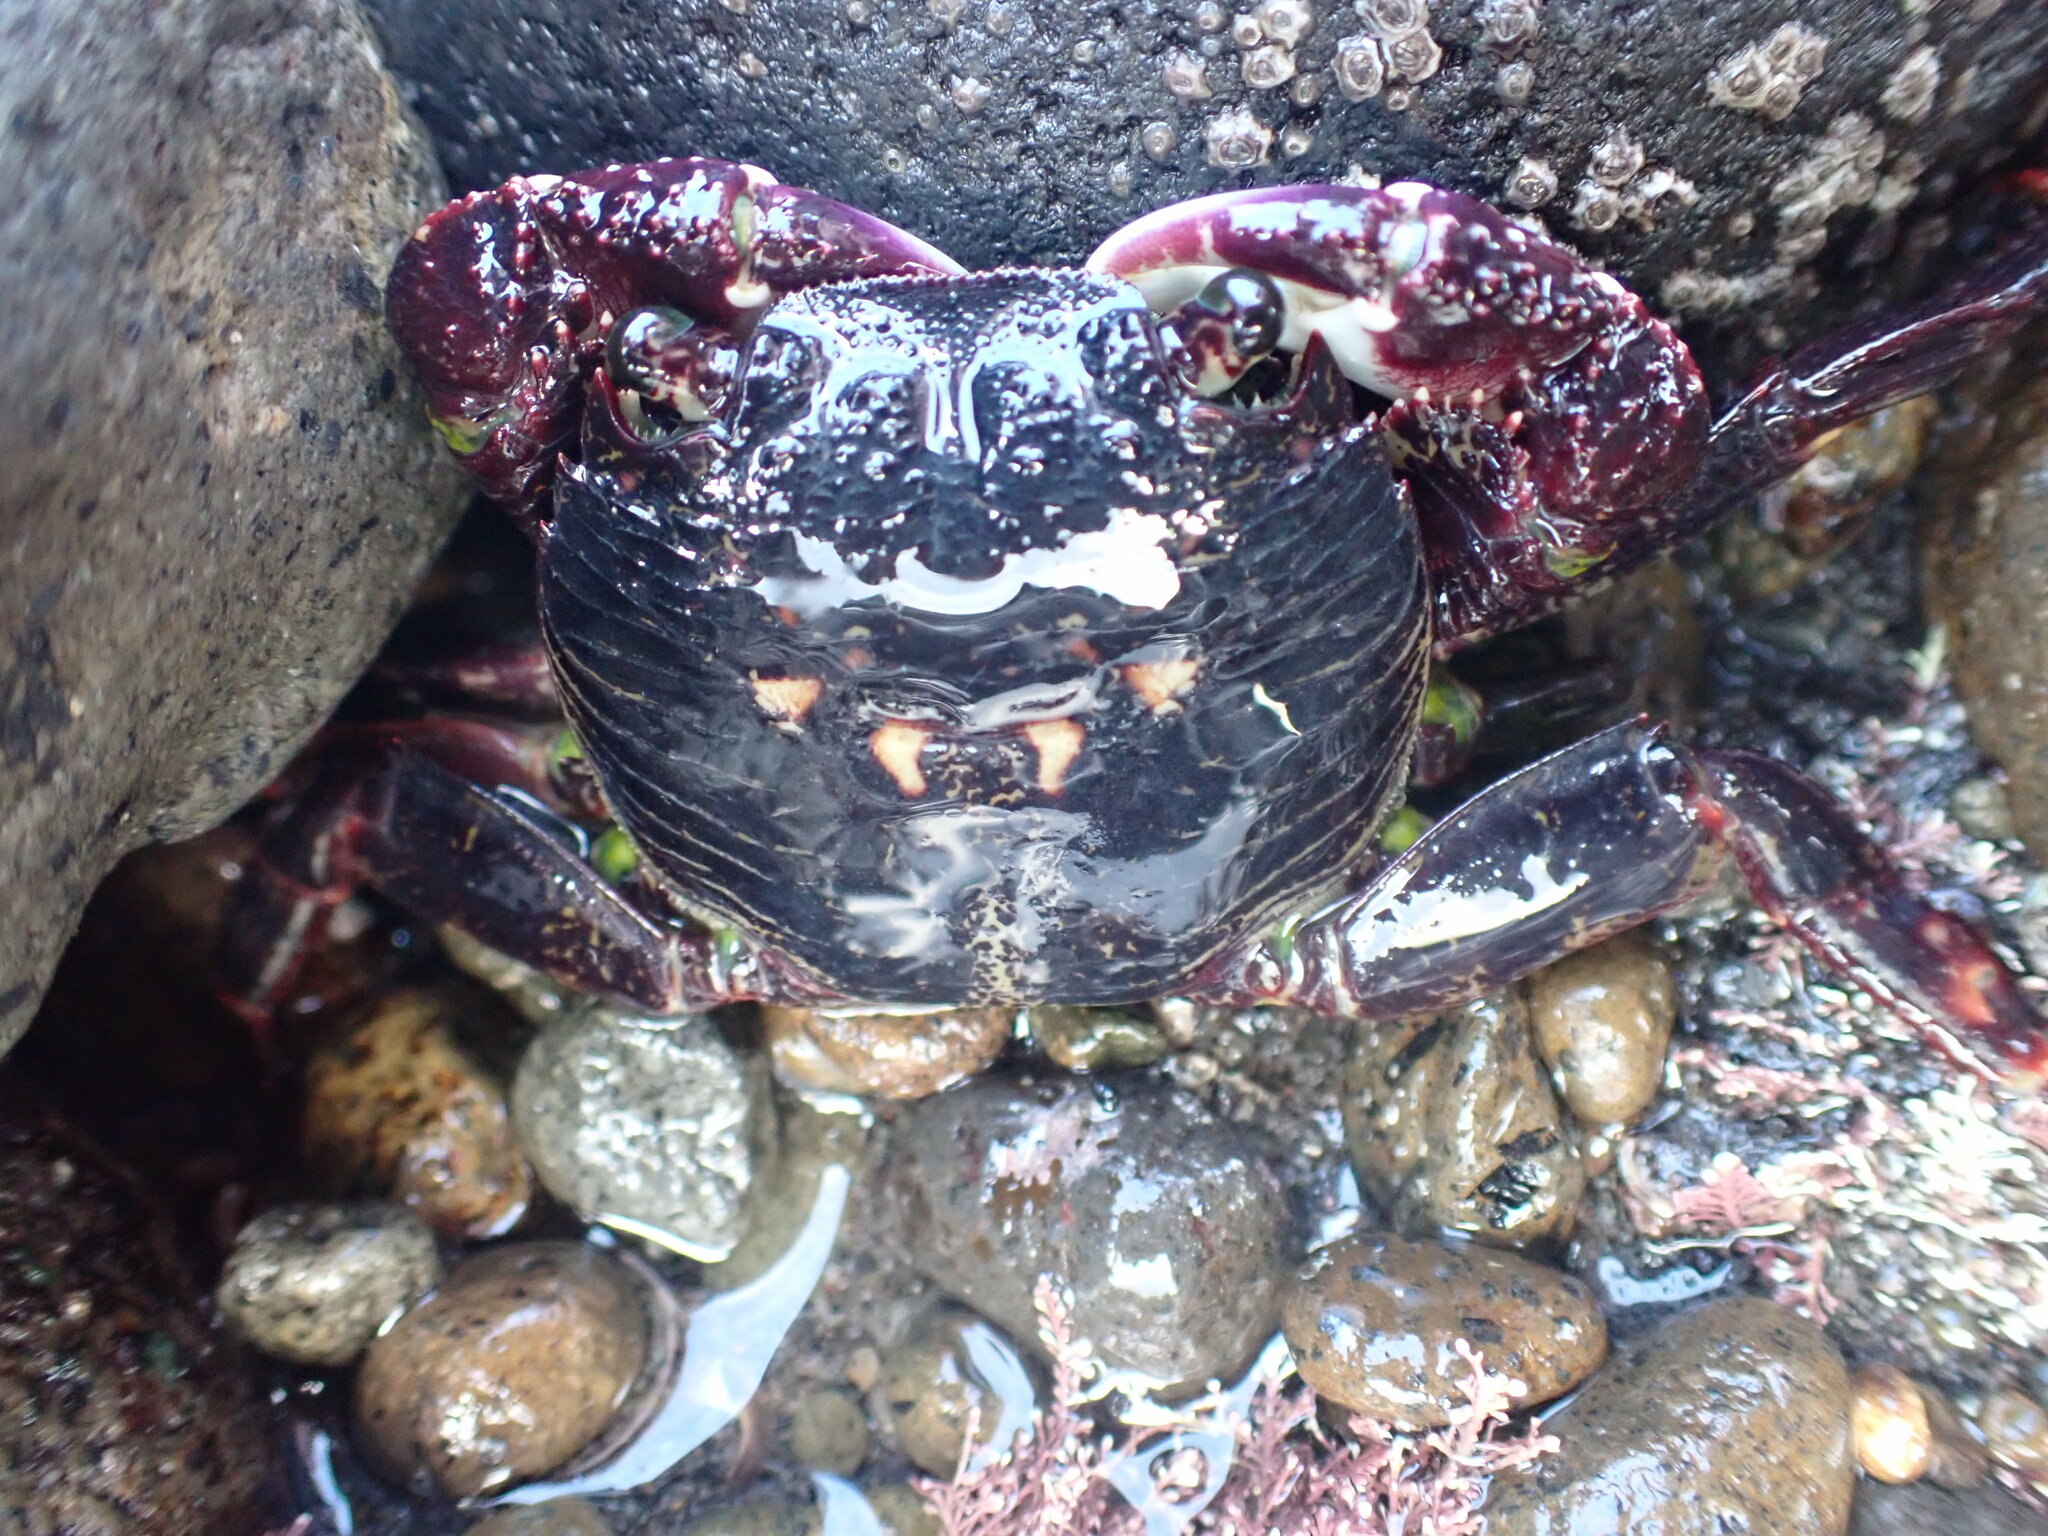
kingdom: Animalia
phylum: Arthropoda
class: Malacostraca
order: Decapoda
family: Grapsidae
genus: Leptograpsus
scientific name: Leptograpsus variegatus
